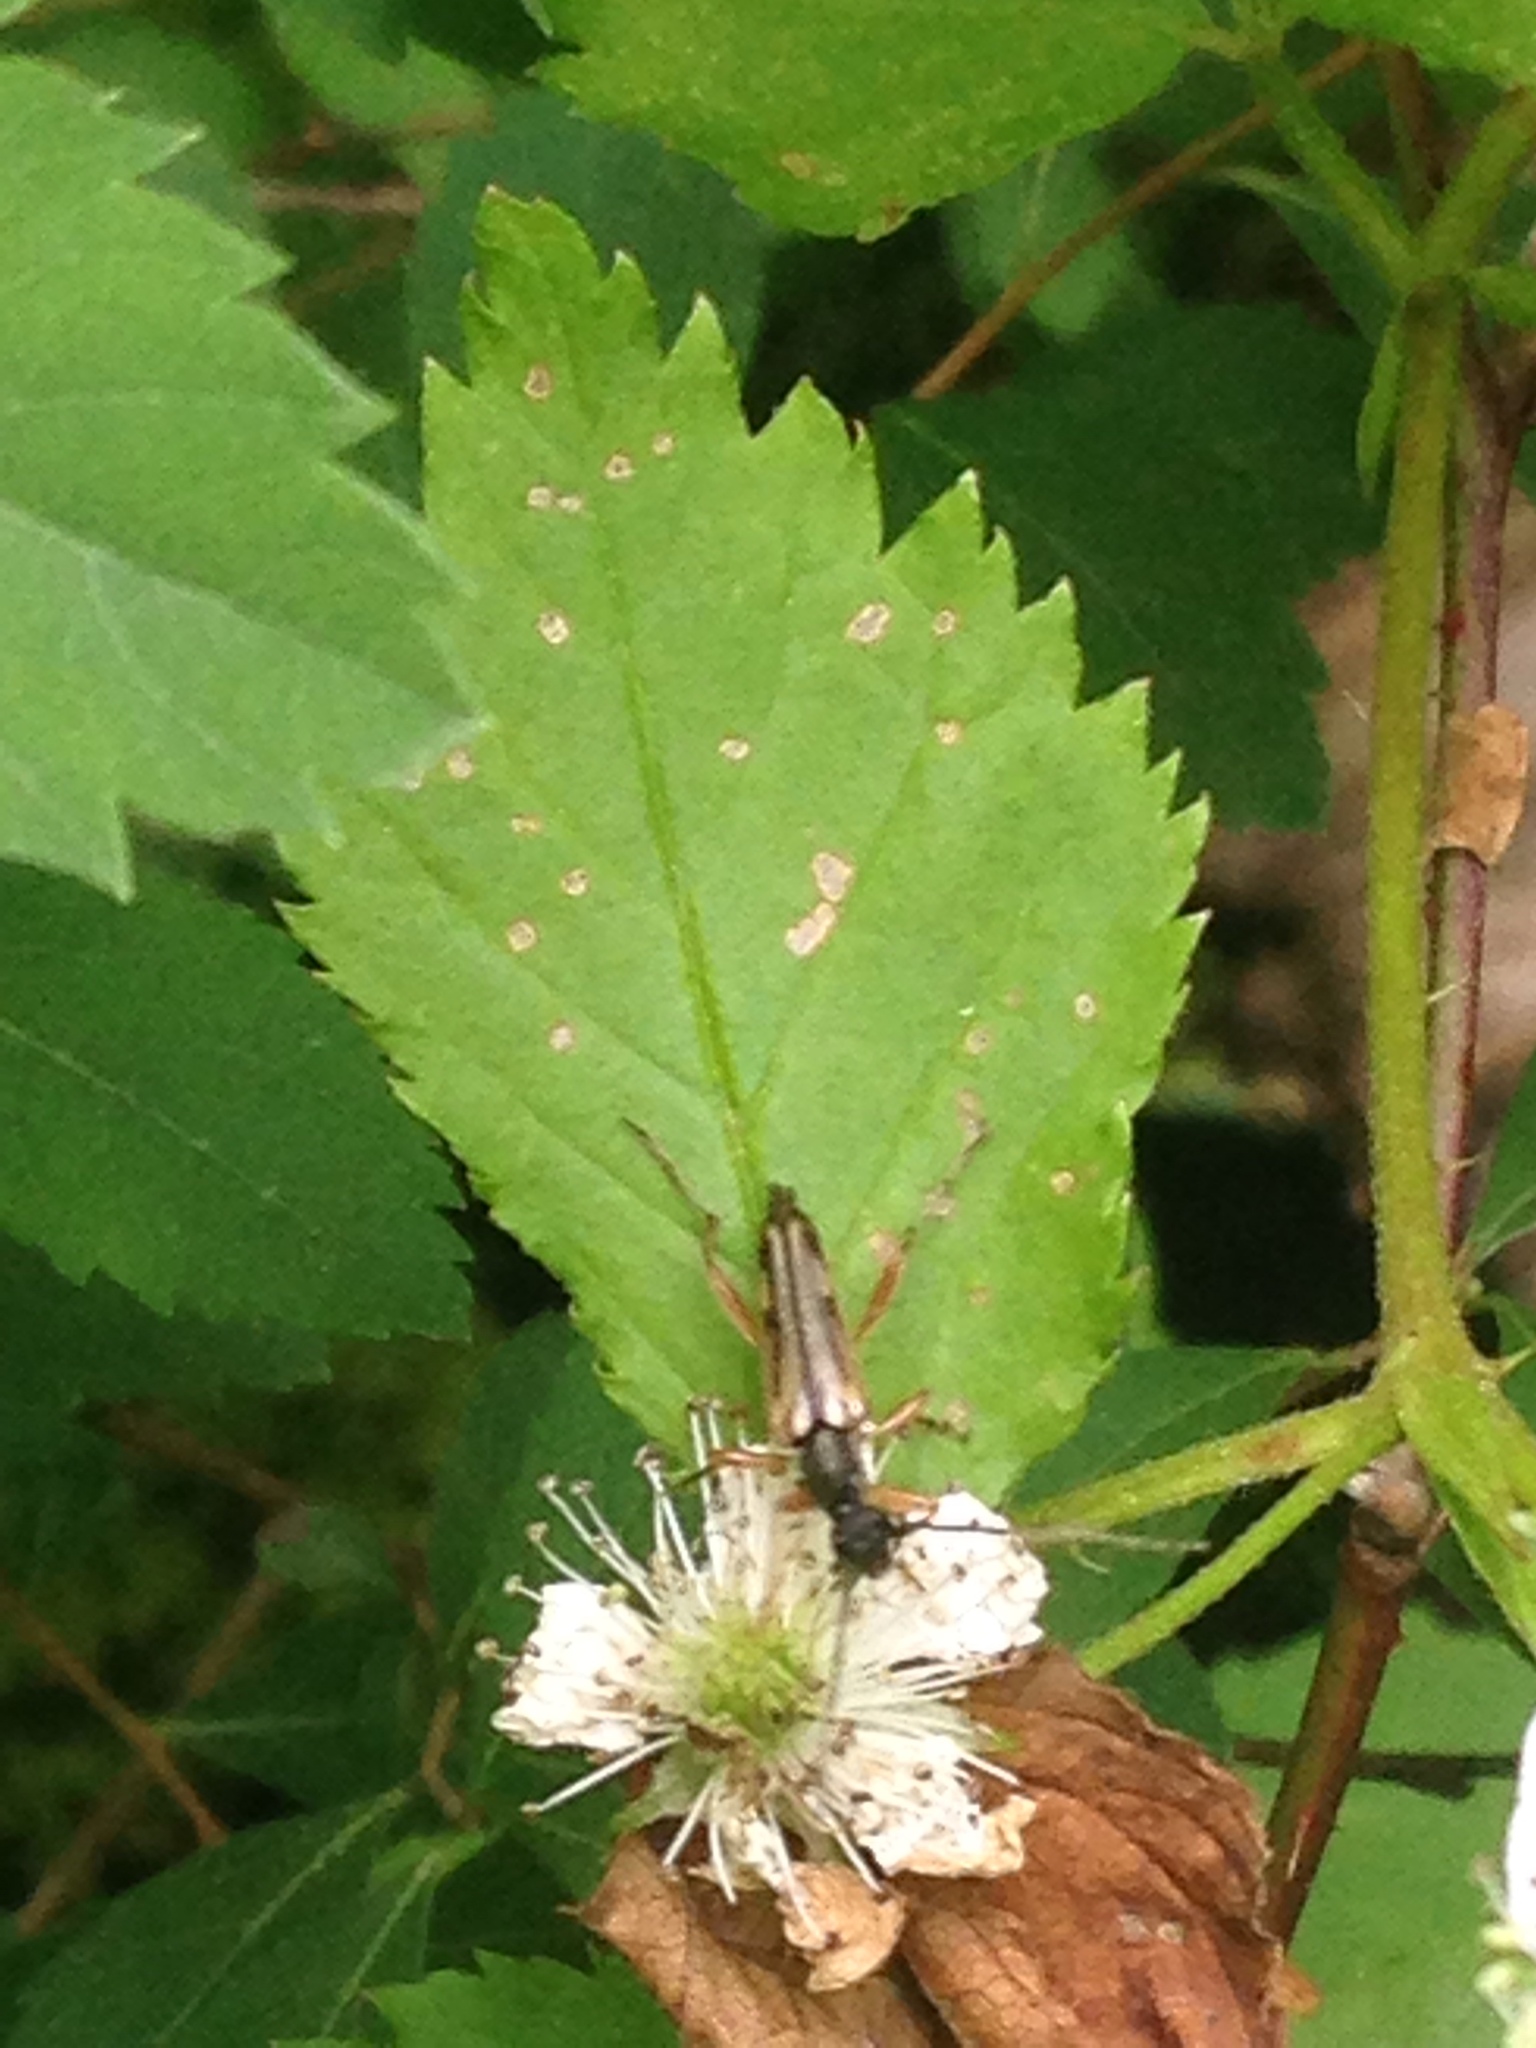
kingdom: Animalia
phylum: Arthropoda
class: Insecta
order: Coleoptera
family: Cerambycidae
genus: Analeptura
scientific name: Analeptura lineola
